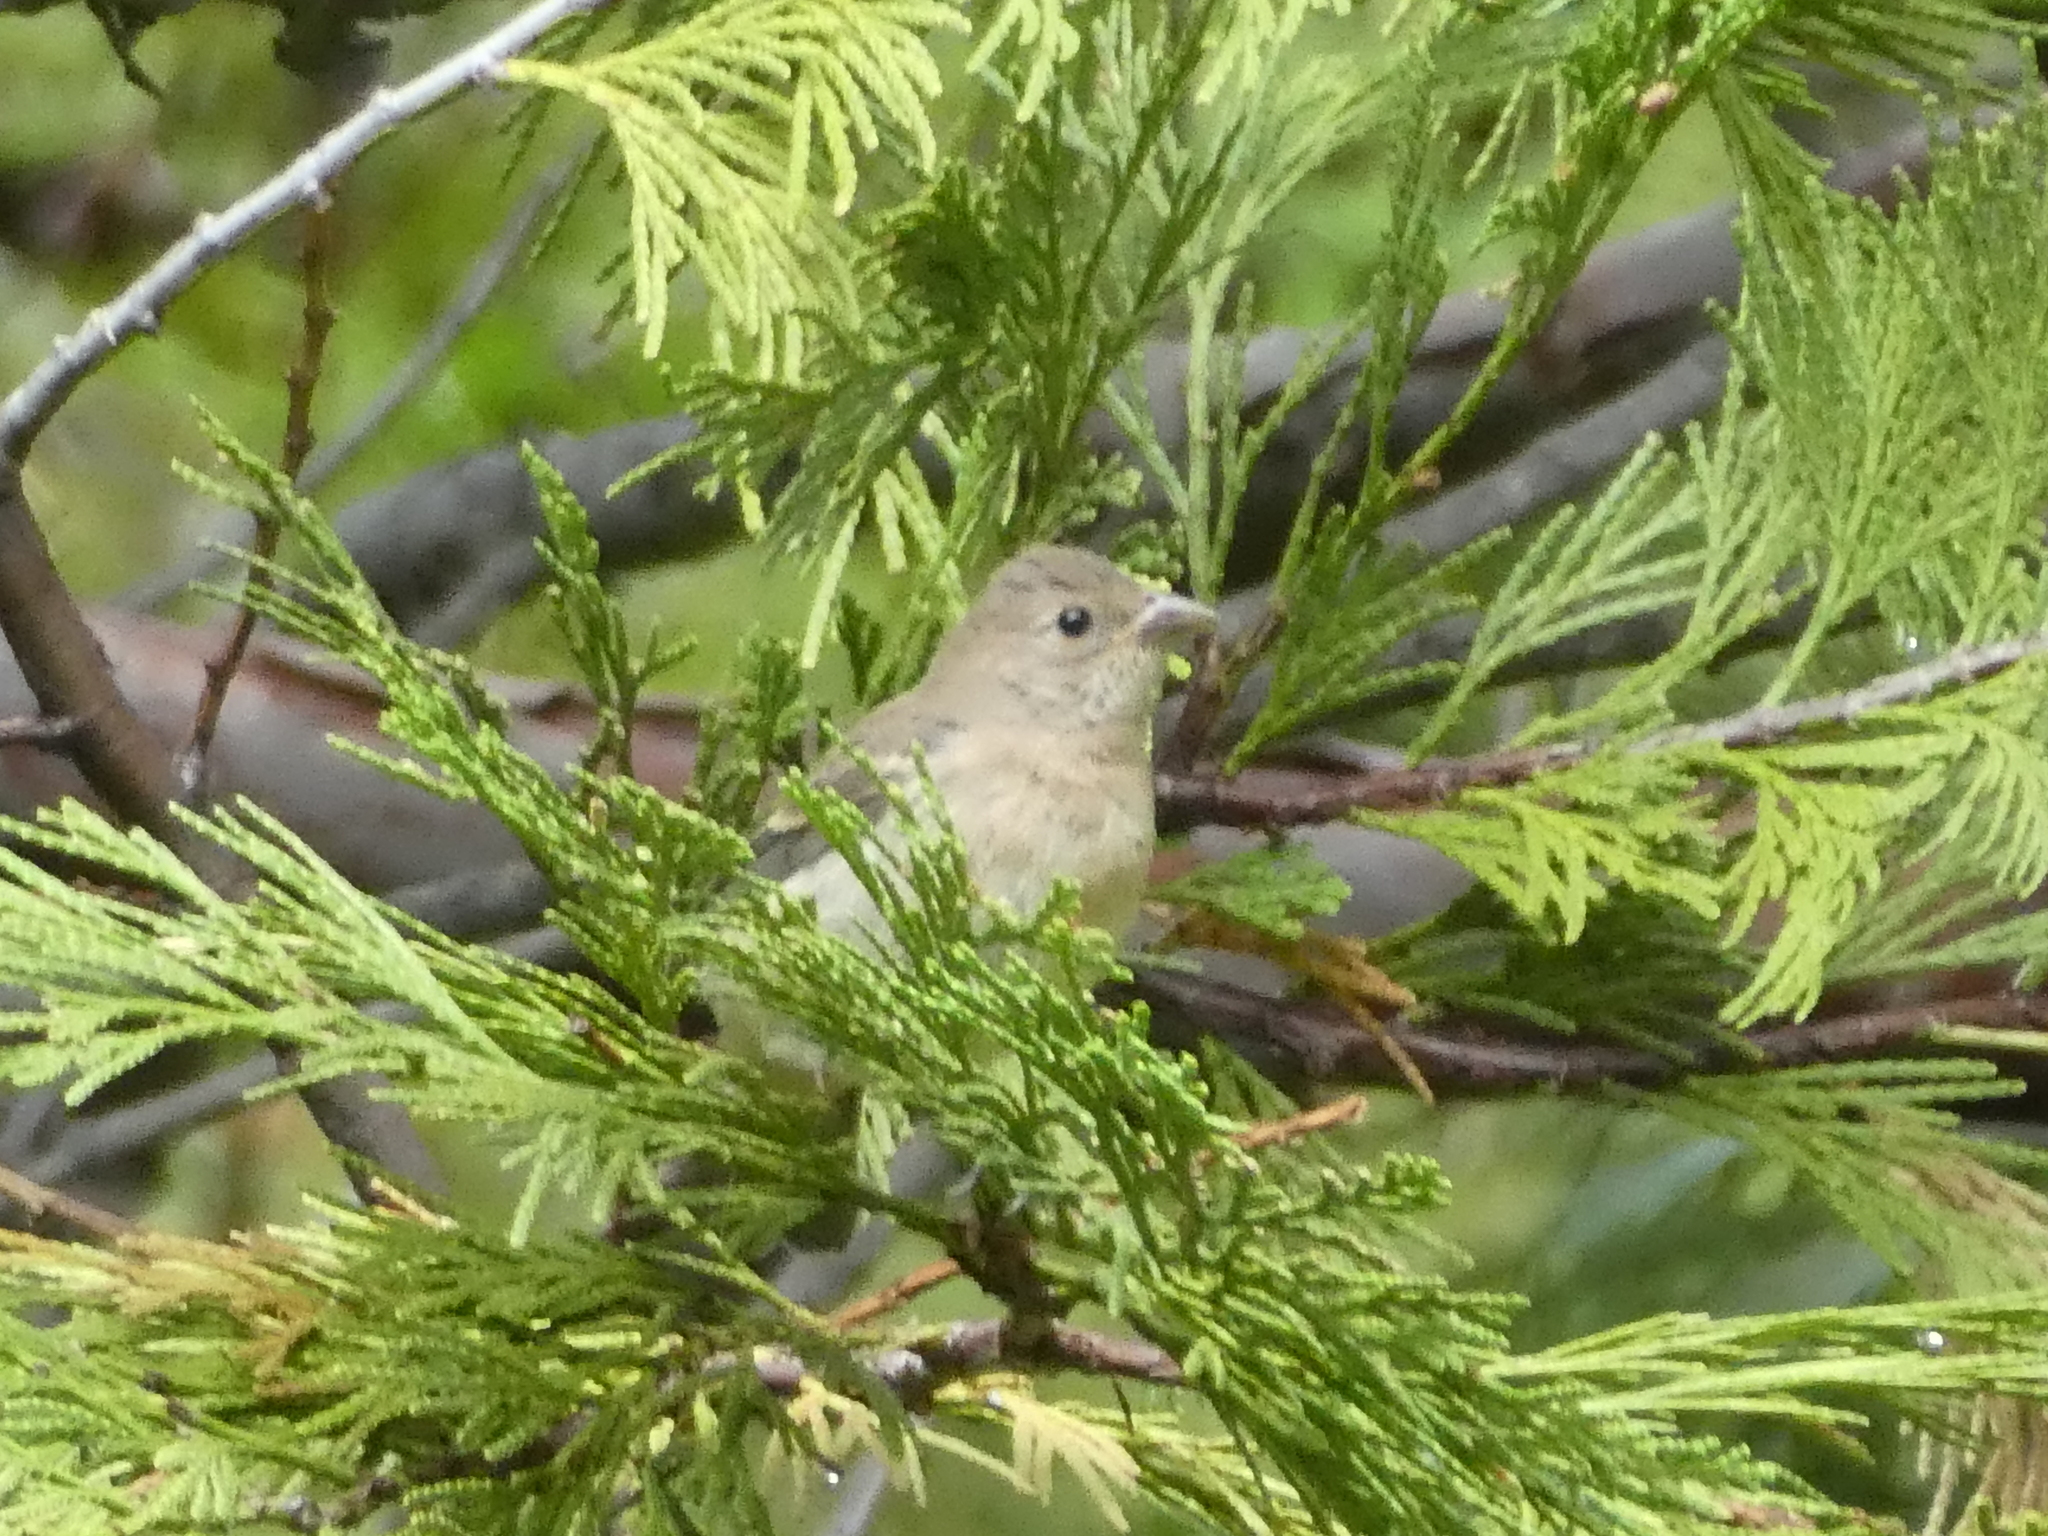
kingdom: Animalia
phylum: Chordata
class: Aves
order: Passeriformes
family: Cardinalidae
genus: Passerina
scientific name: Passerina amoena
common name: Lazuli bunting
